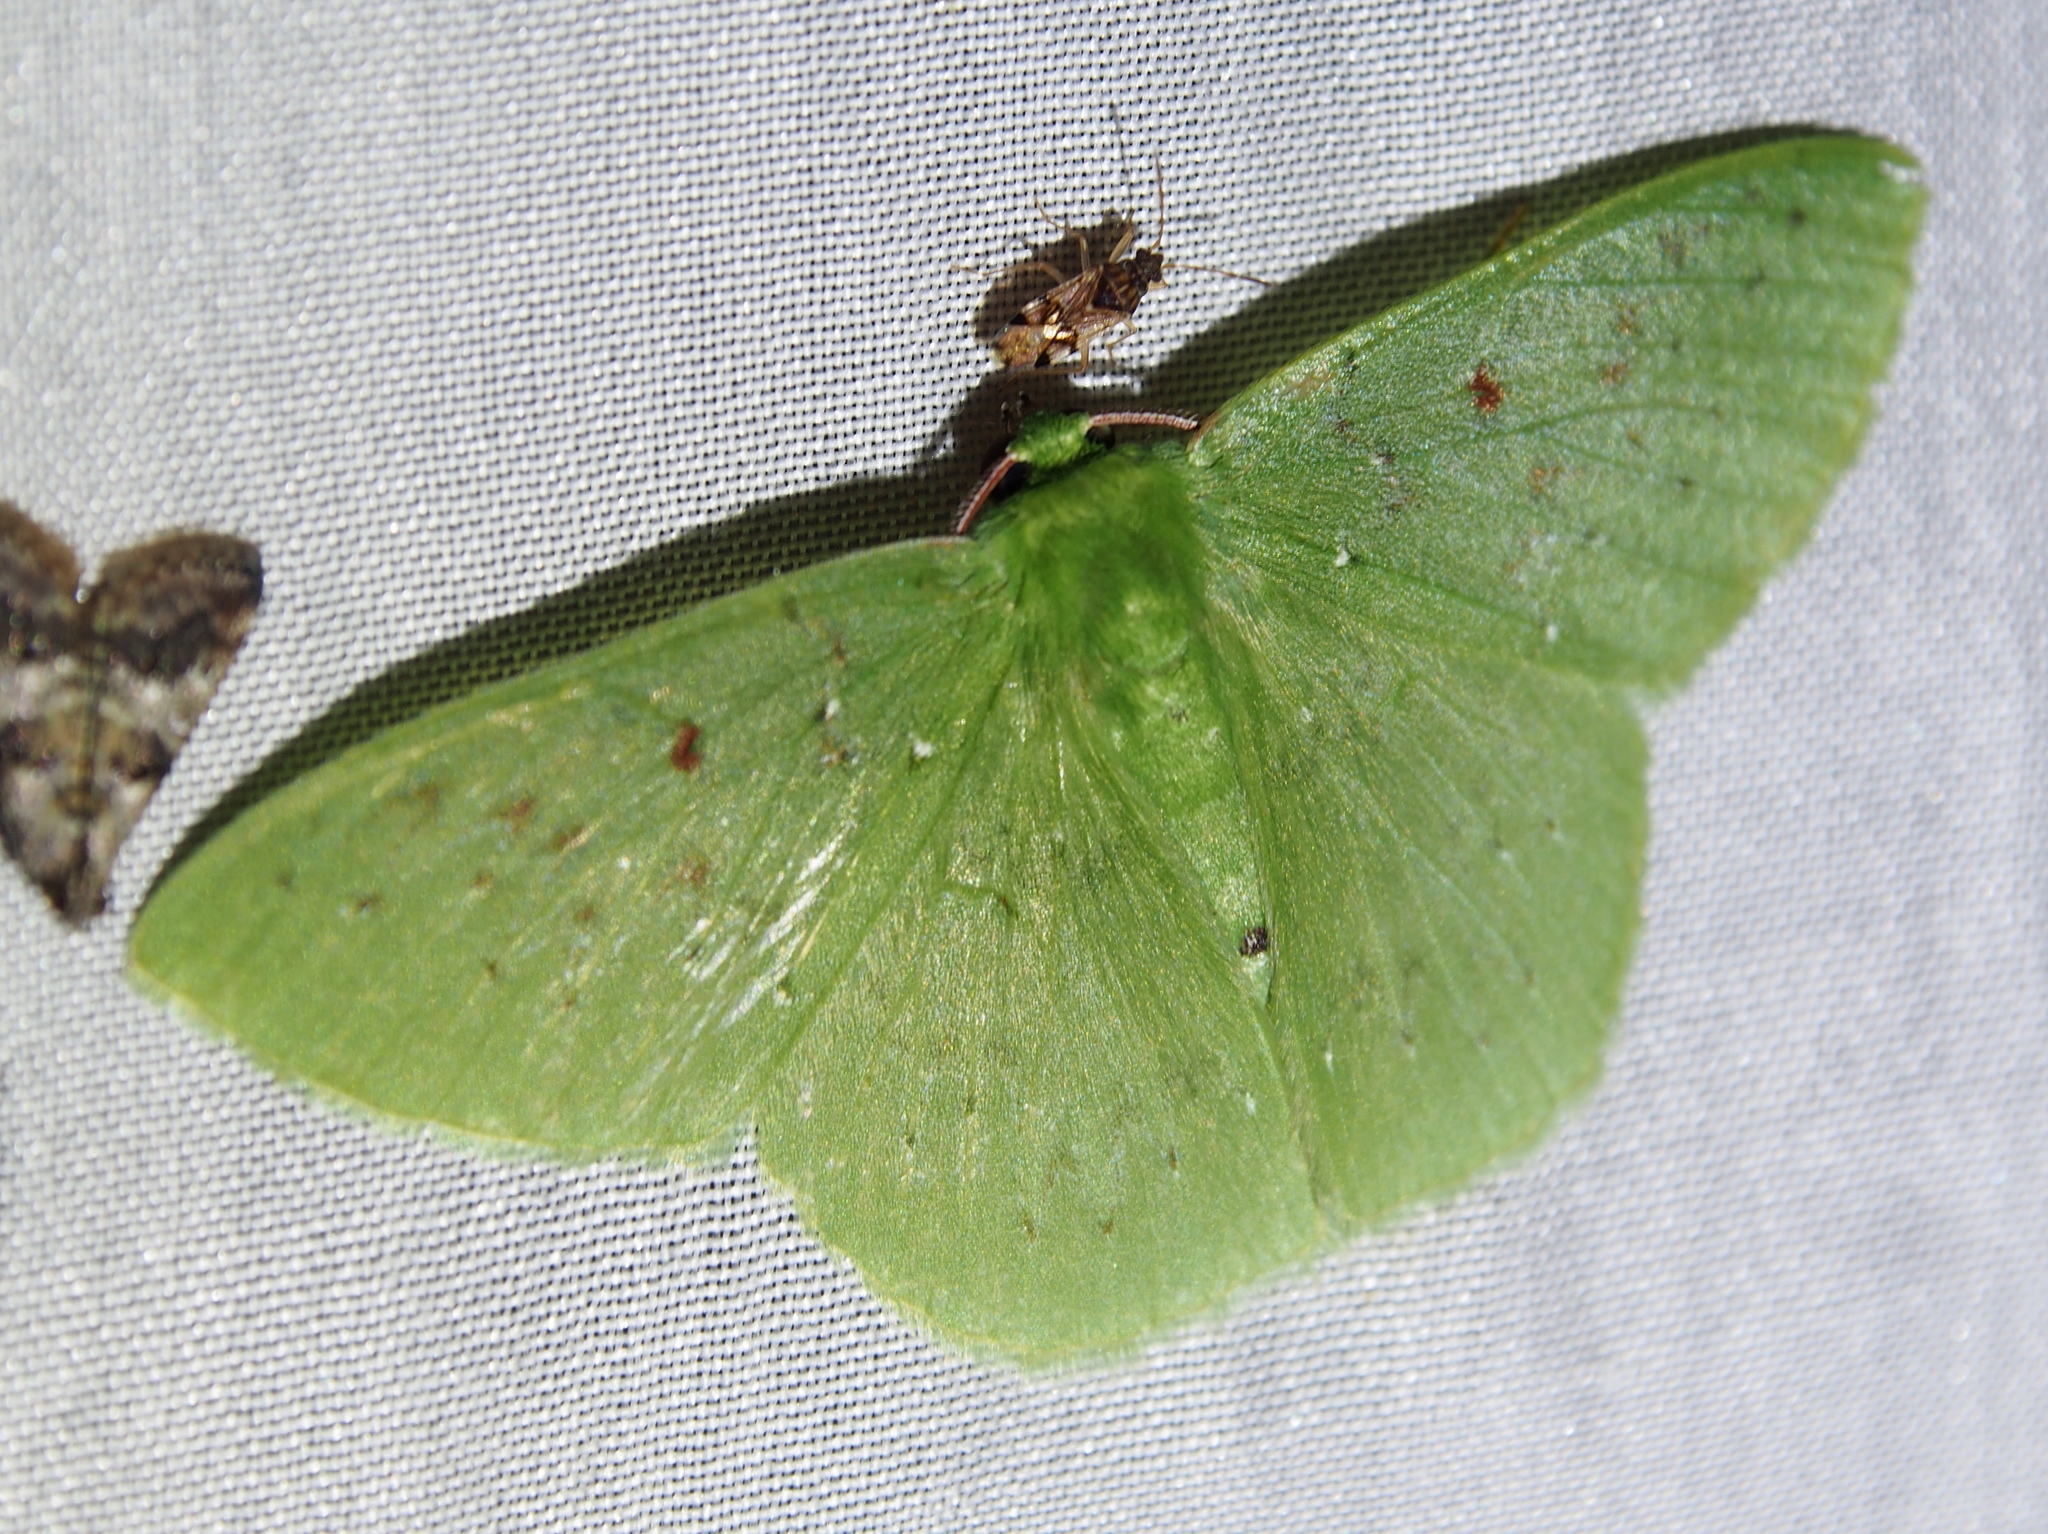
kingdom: Animalia
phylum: Arthropoda
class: Insecta
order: Lepidoptera
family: Geometridae
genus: Nemoria
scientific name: Nemoria punctilinea
